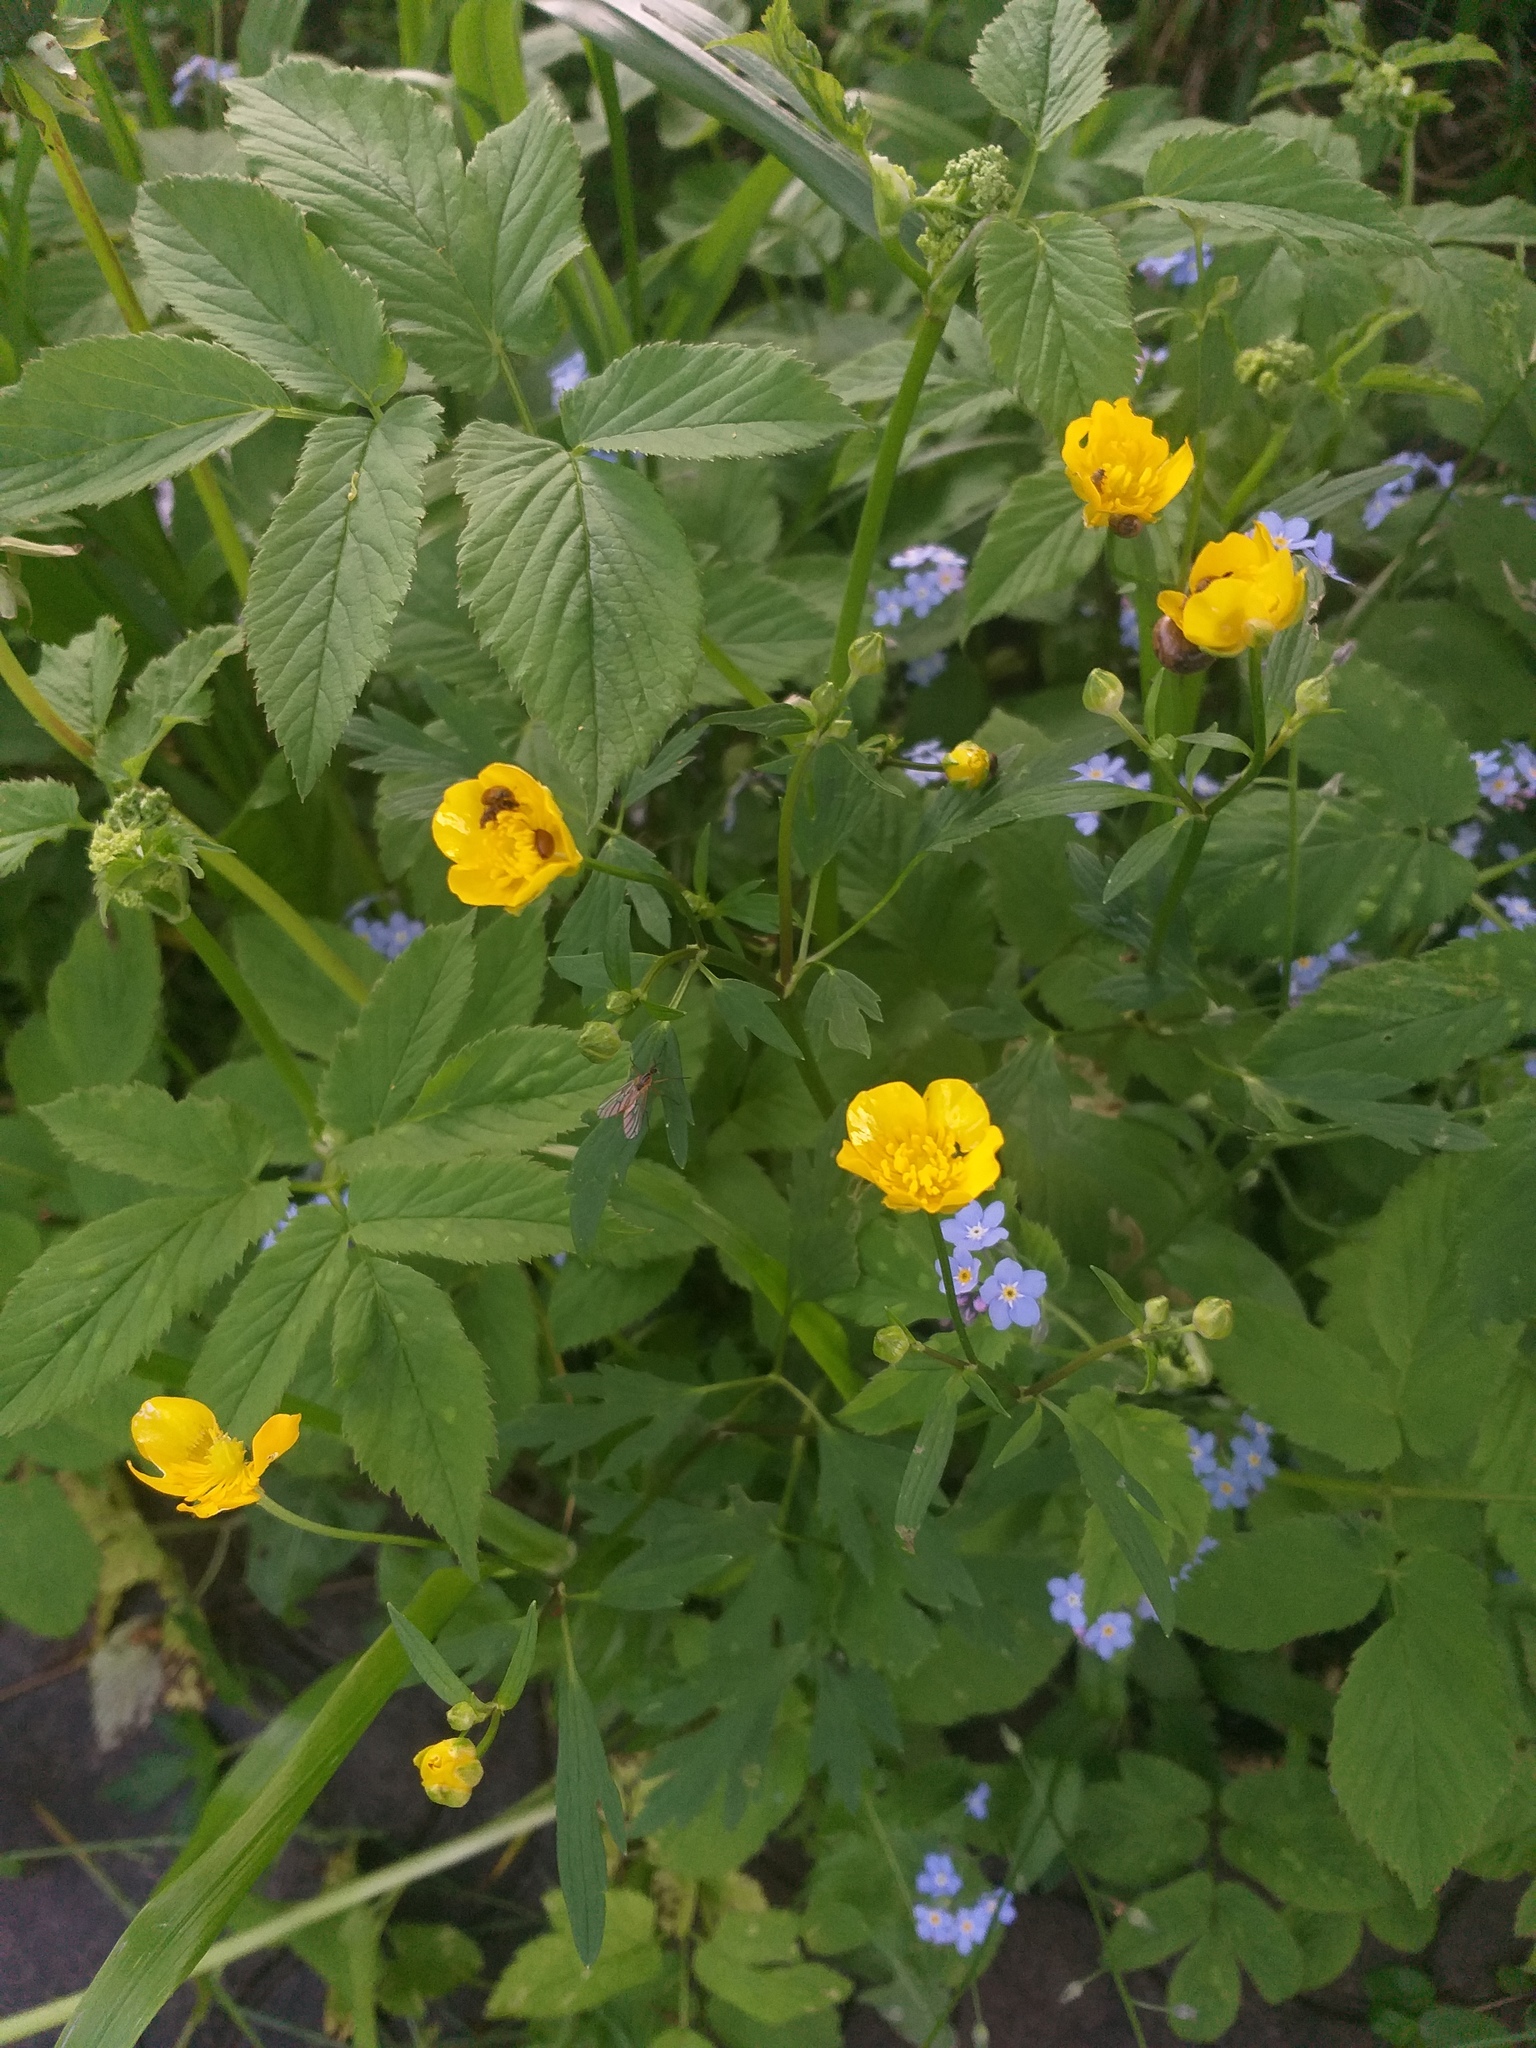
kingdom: Plantae
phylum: Tracheophyta
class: Magnoliopsida
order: Ranunculales
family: Ranunculaceae
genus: Ranunculus
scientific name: Ranunculus repens
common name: Creeping buttercup
